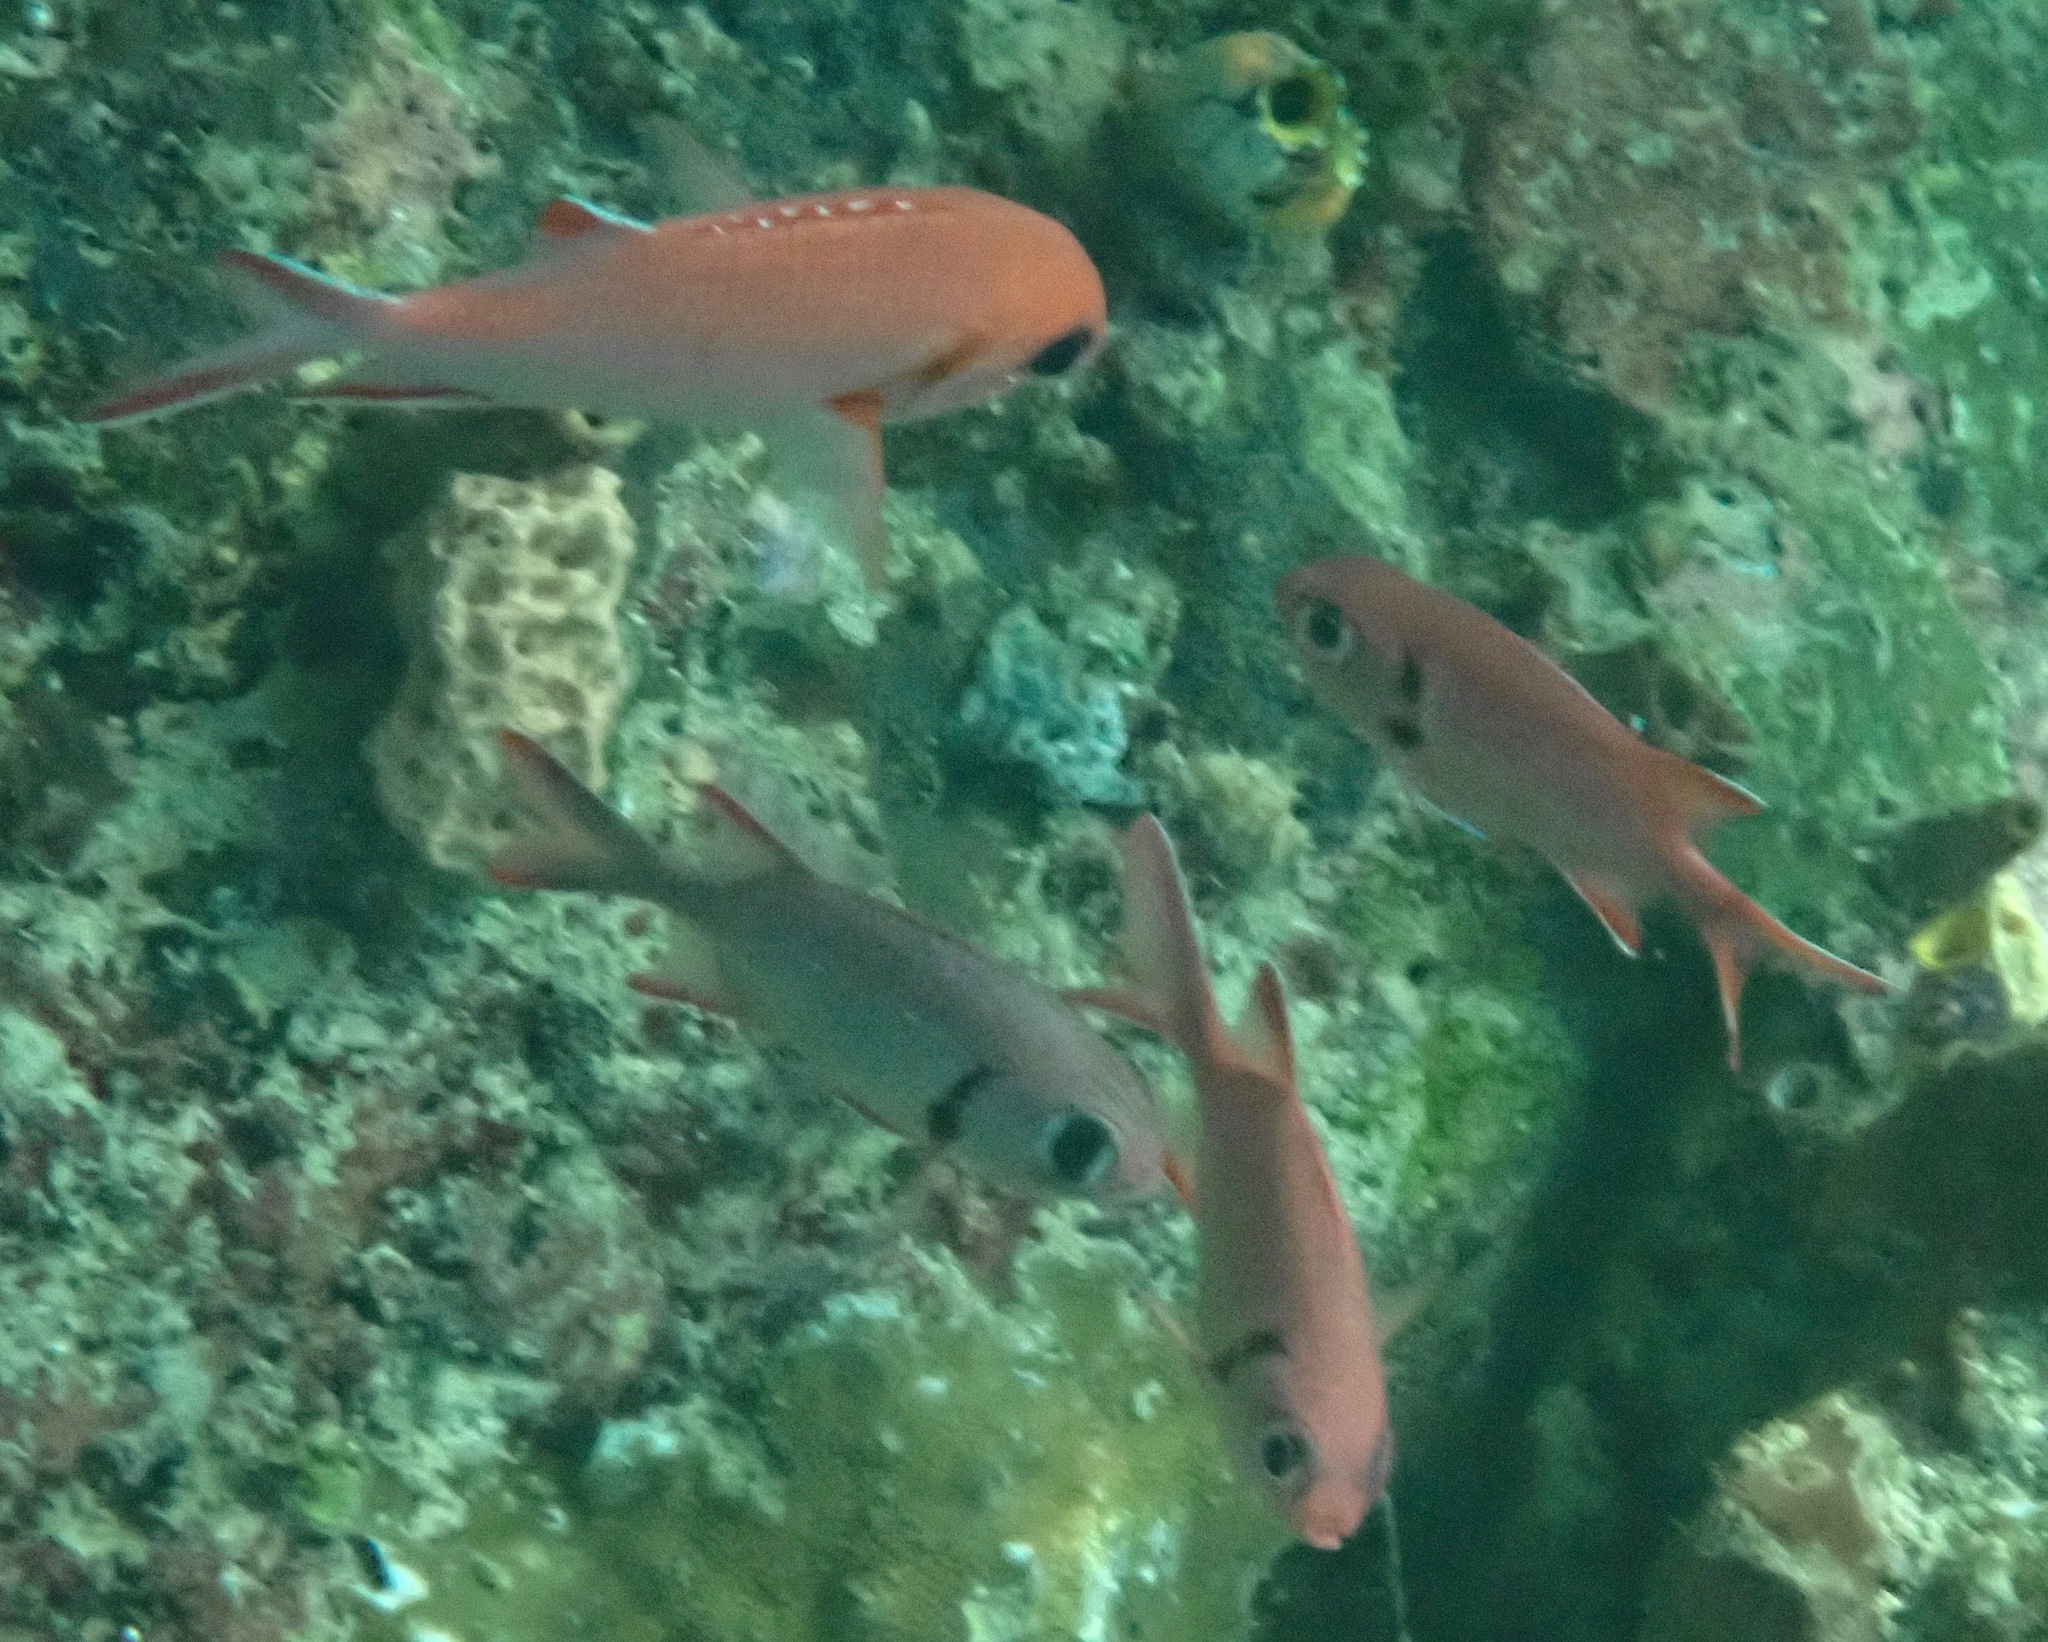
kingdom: Animalia
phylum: Chordata
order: Beryciformes
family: Holocentridae
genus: Myripristis
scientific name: Myripristis vittata
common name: Immaculate squirrelfish
